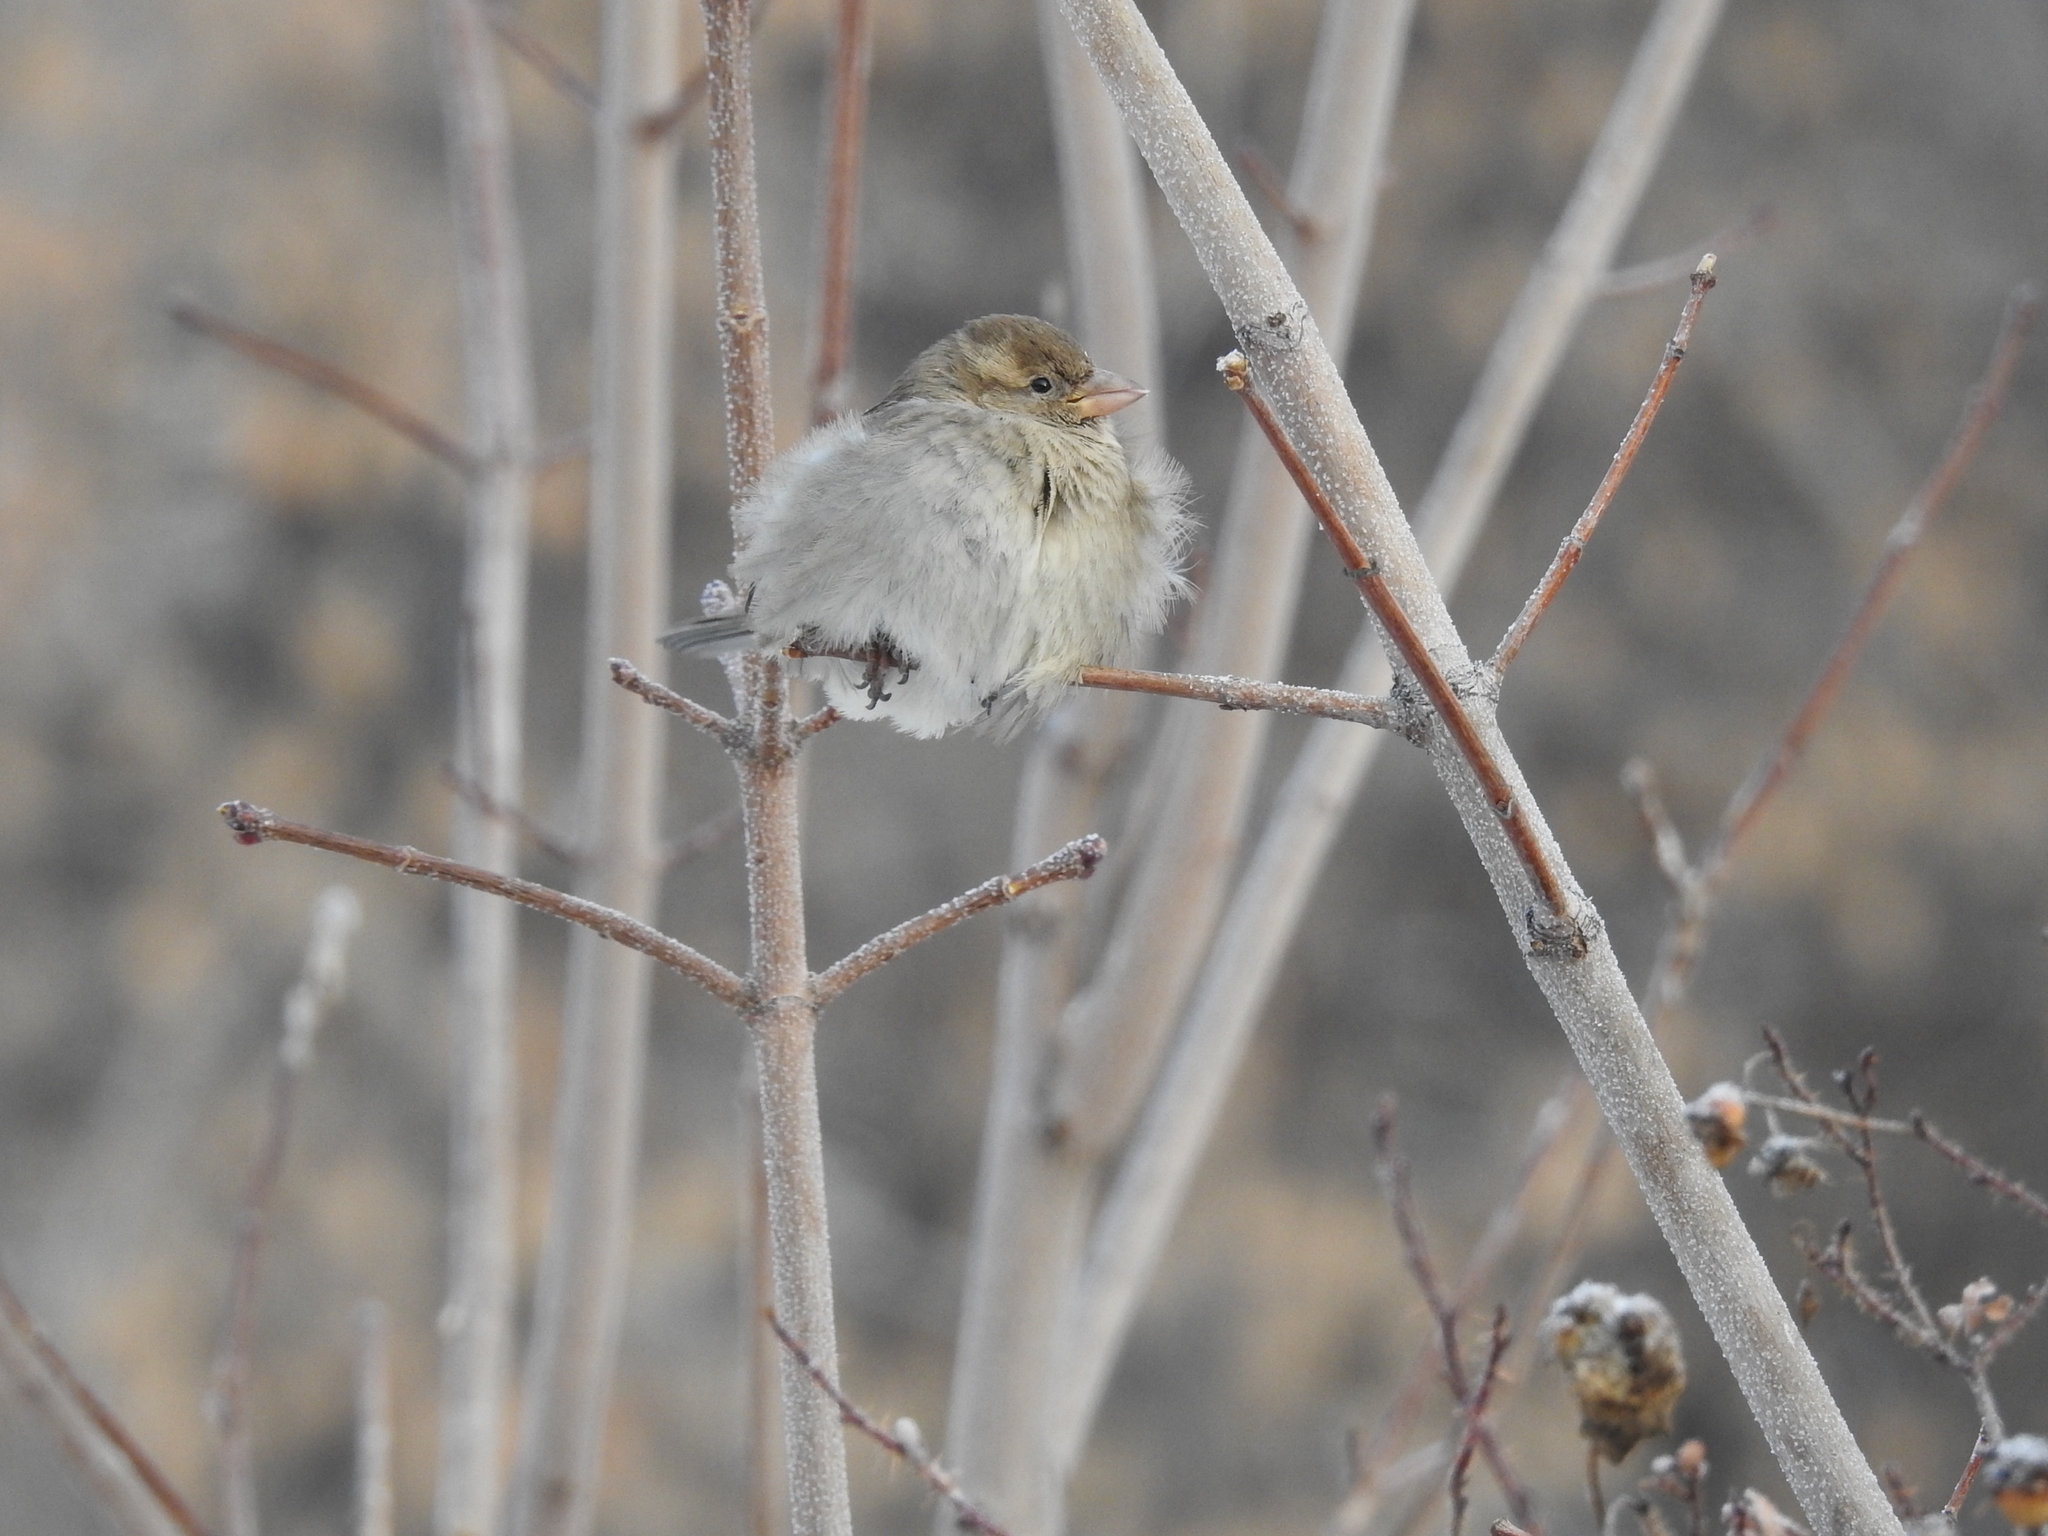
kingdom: Animalia
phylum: Chordata
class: Aves
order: Passeriformes
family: Passeridae
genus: Passer
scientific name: Passer domesticus
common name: House sparrow
